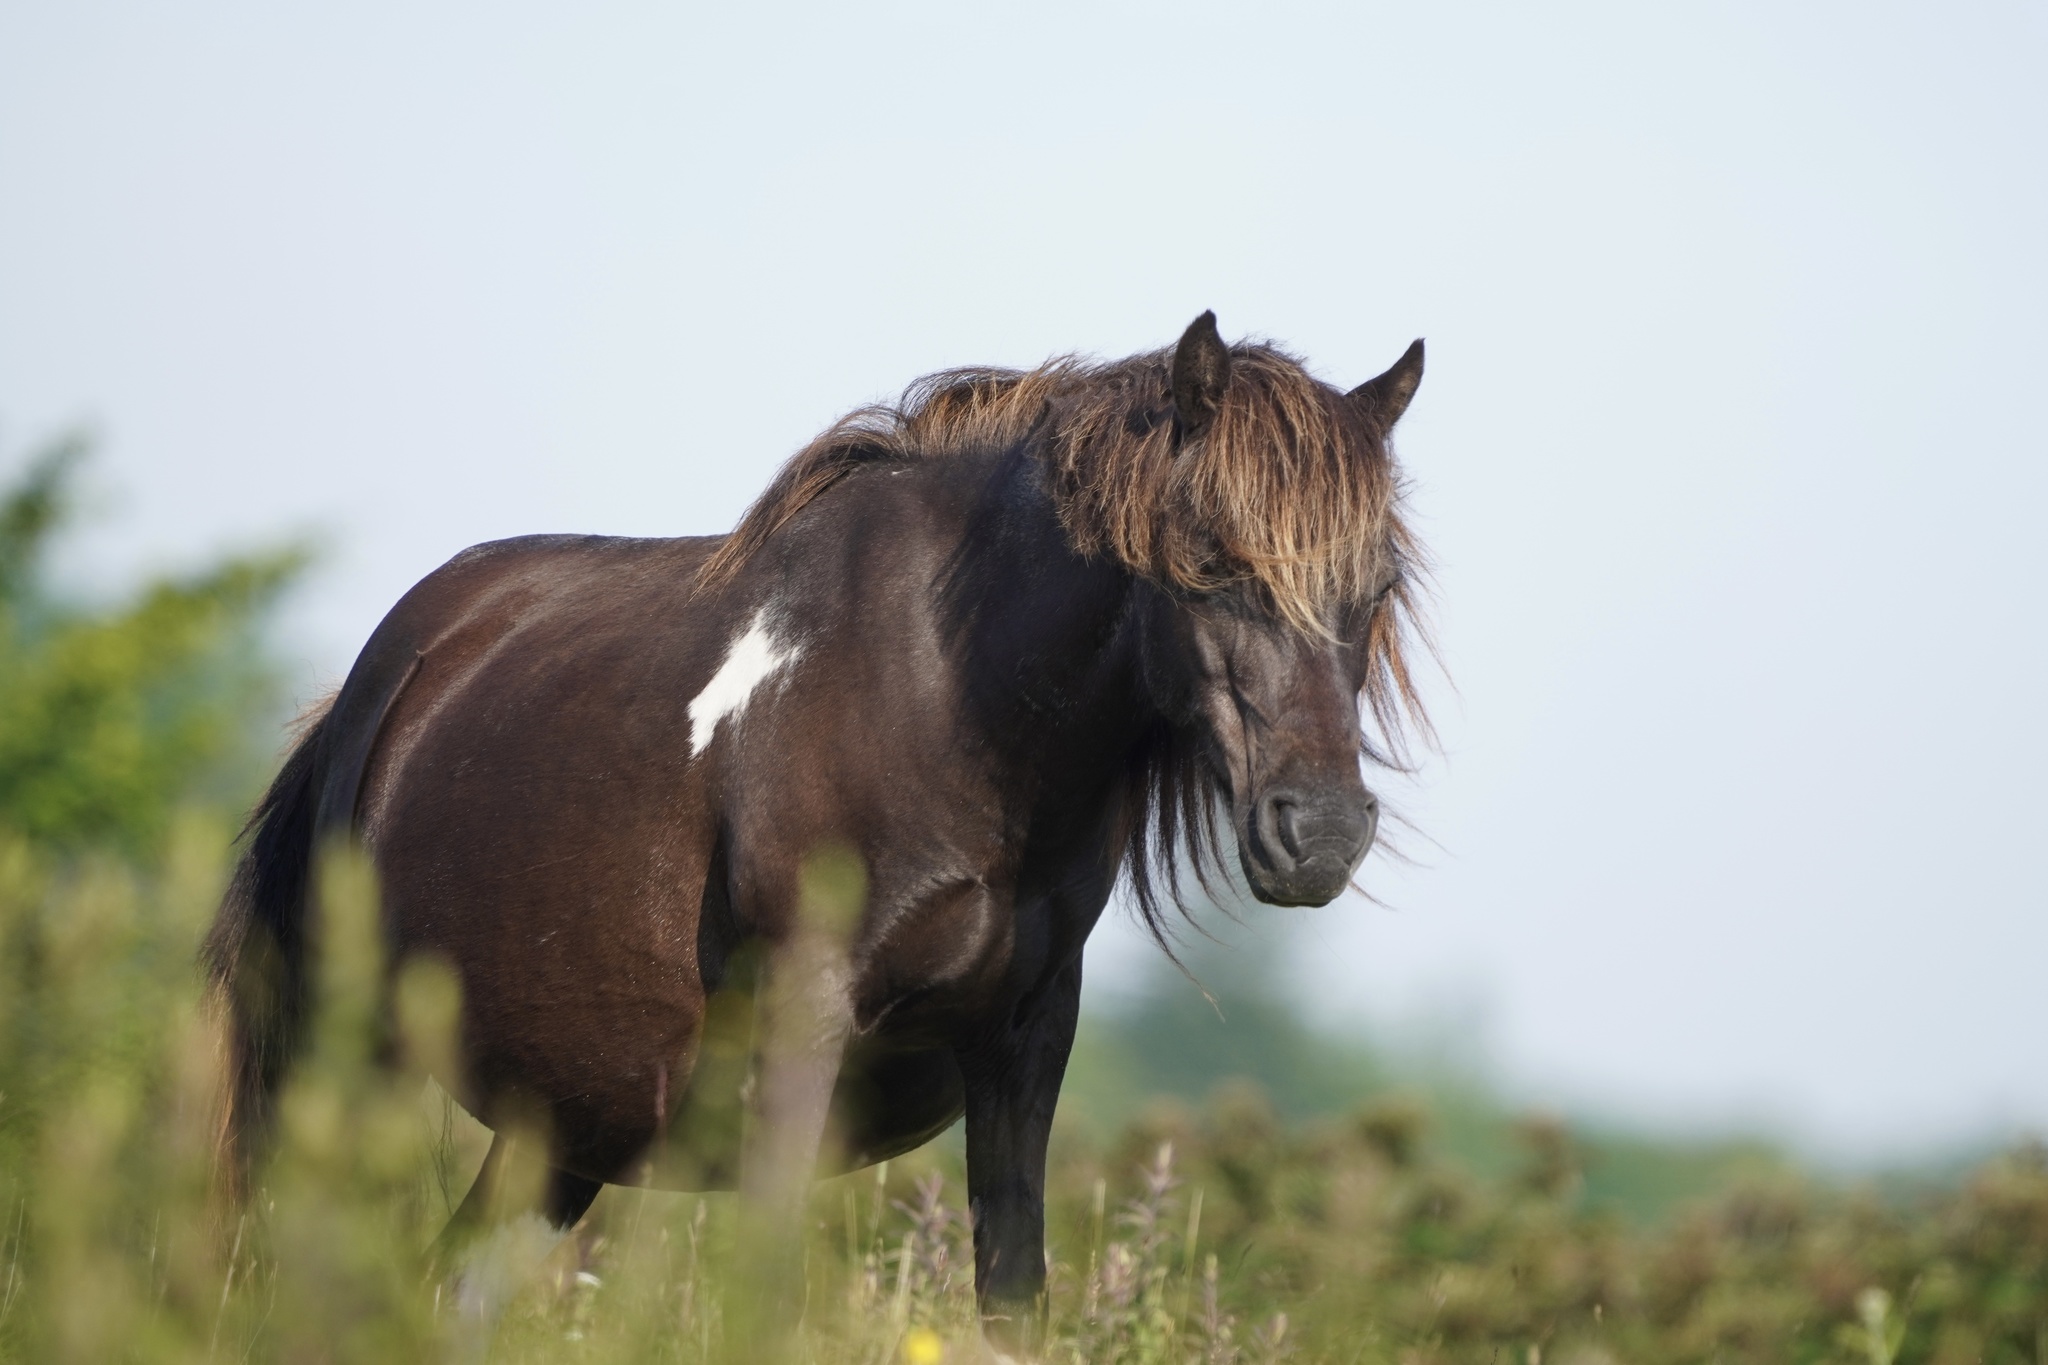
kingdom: Animalia
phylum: Chordata
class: Mammalia
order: Perissodactyla
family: Equidae
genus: Equus
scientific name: Equus caballus
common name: Horse
